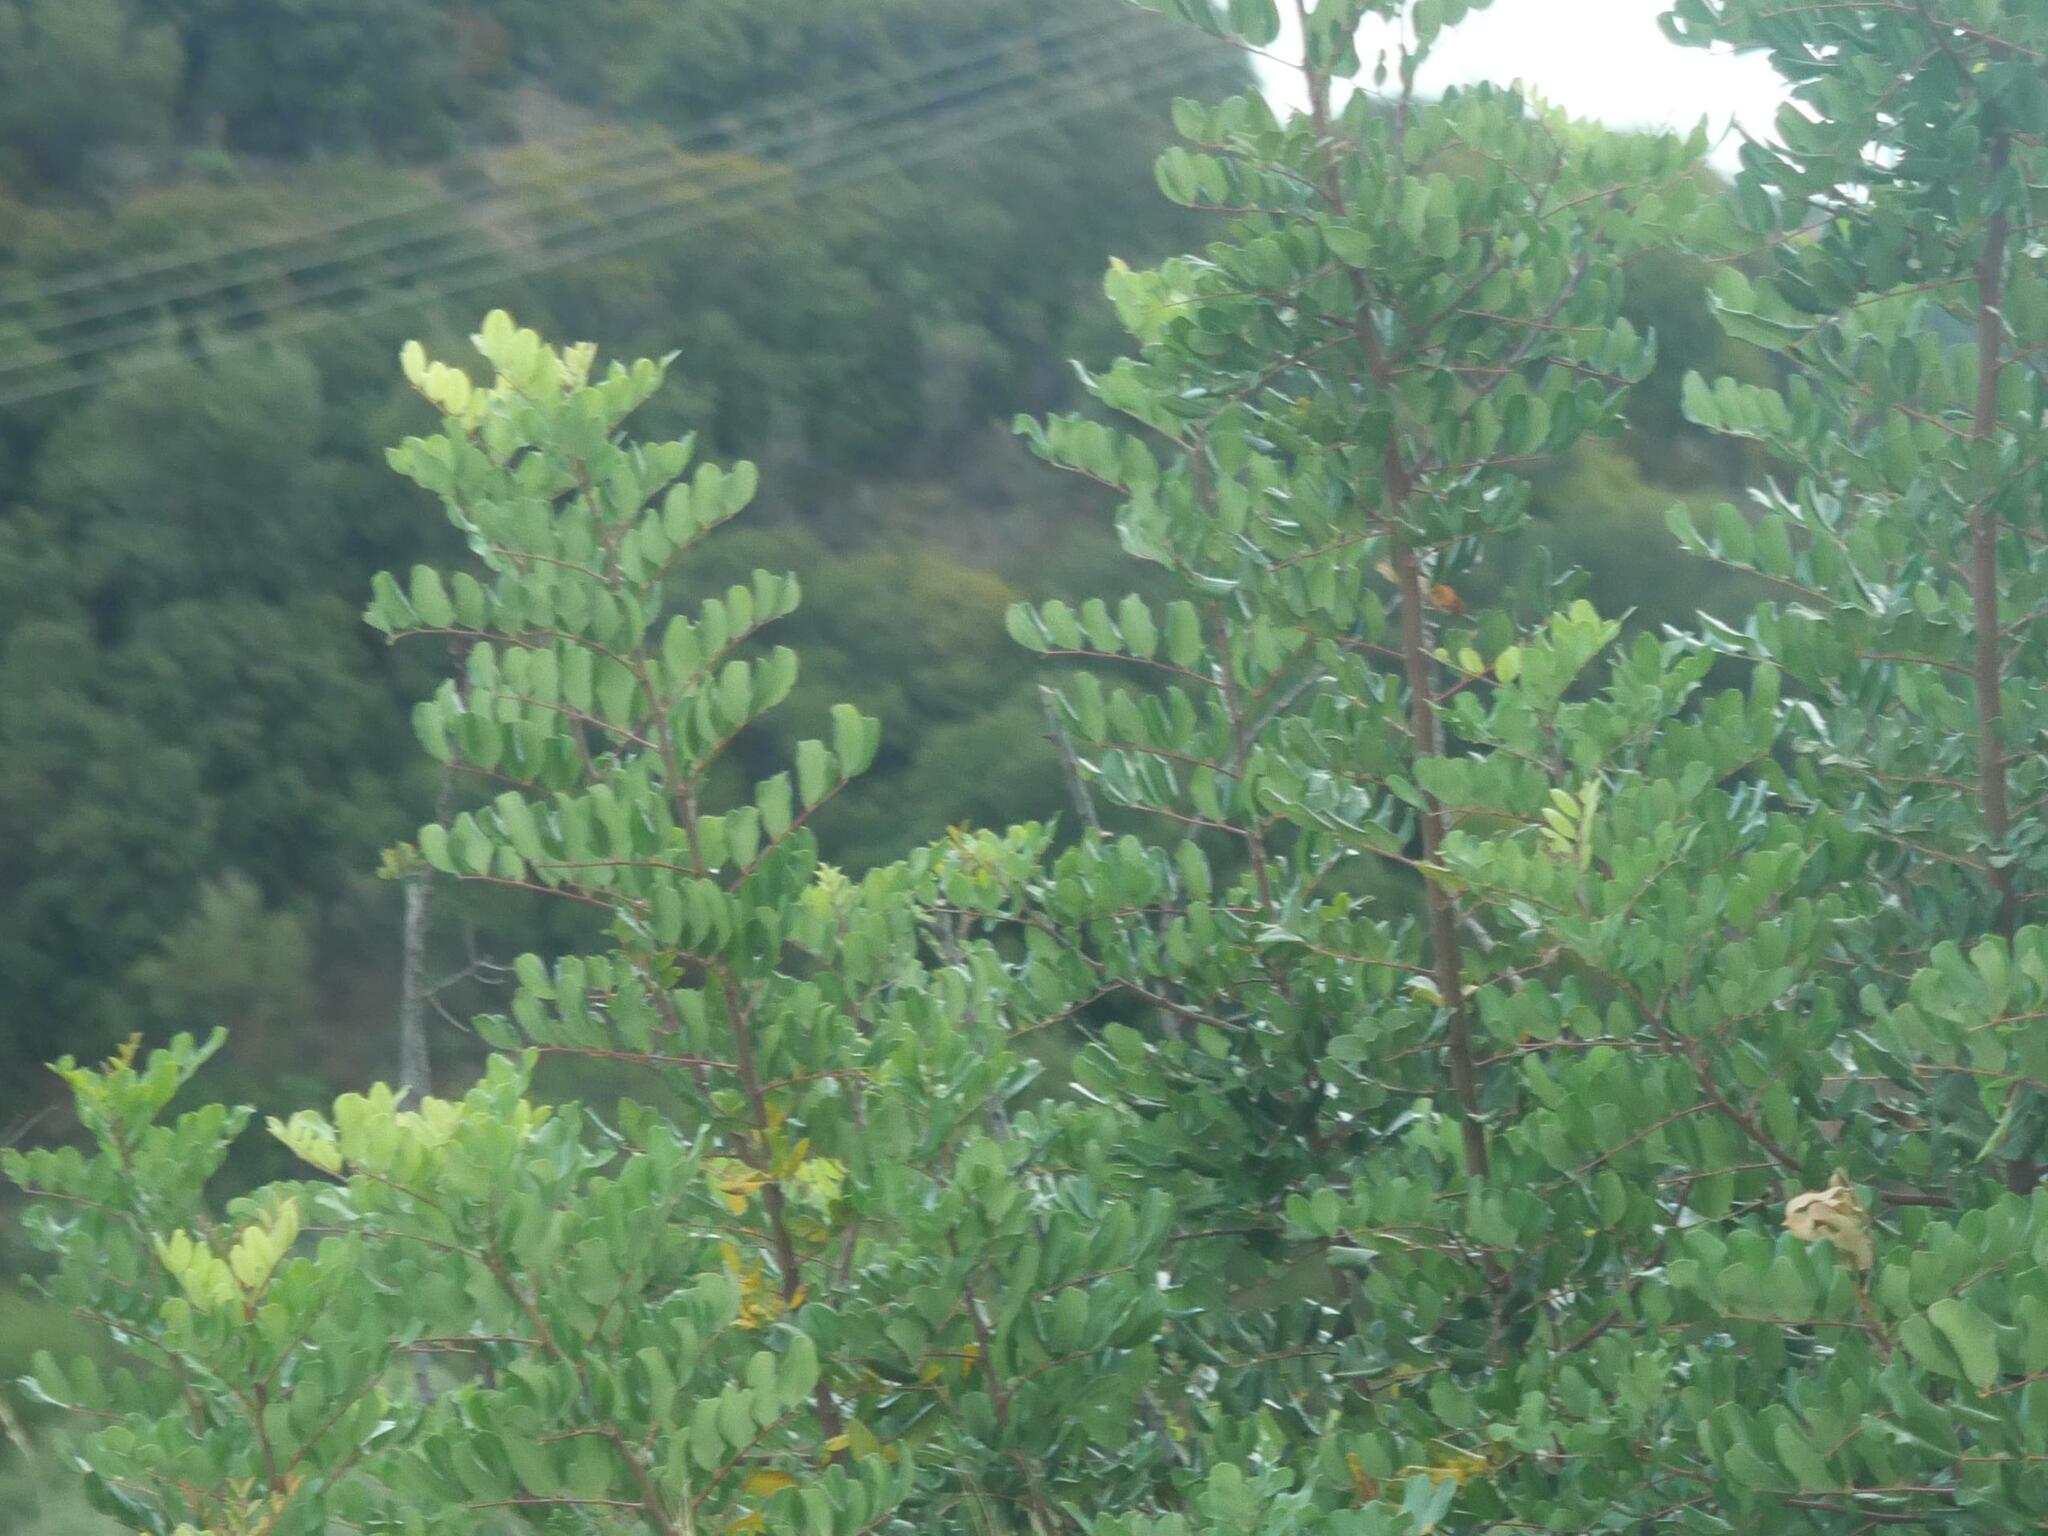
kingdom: Plantae
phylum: Tracheophyta
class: Magnoliopsida
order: Fabales
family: Fabaceae
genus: Ceratonia
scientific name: Ceratonia siliqua
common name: Carob
